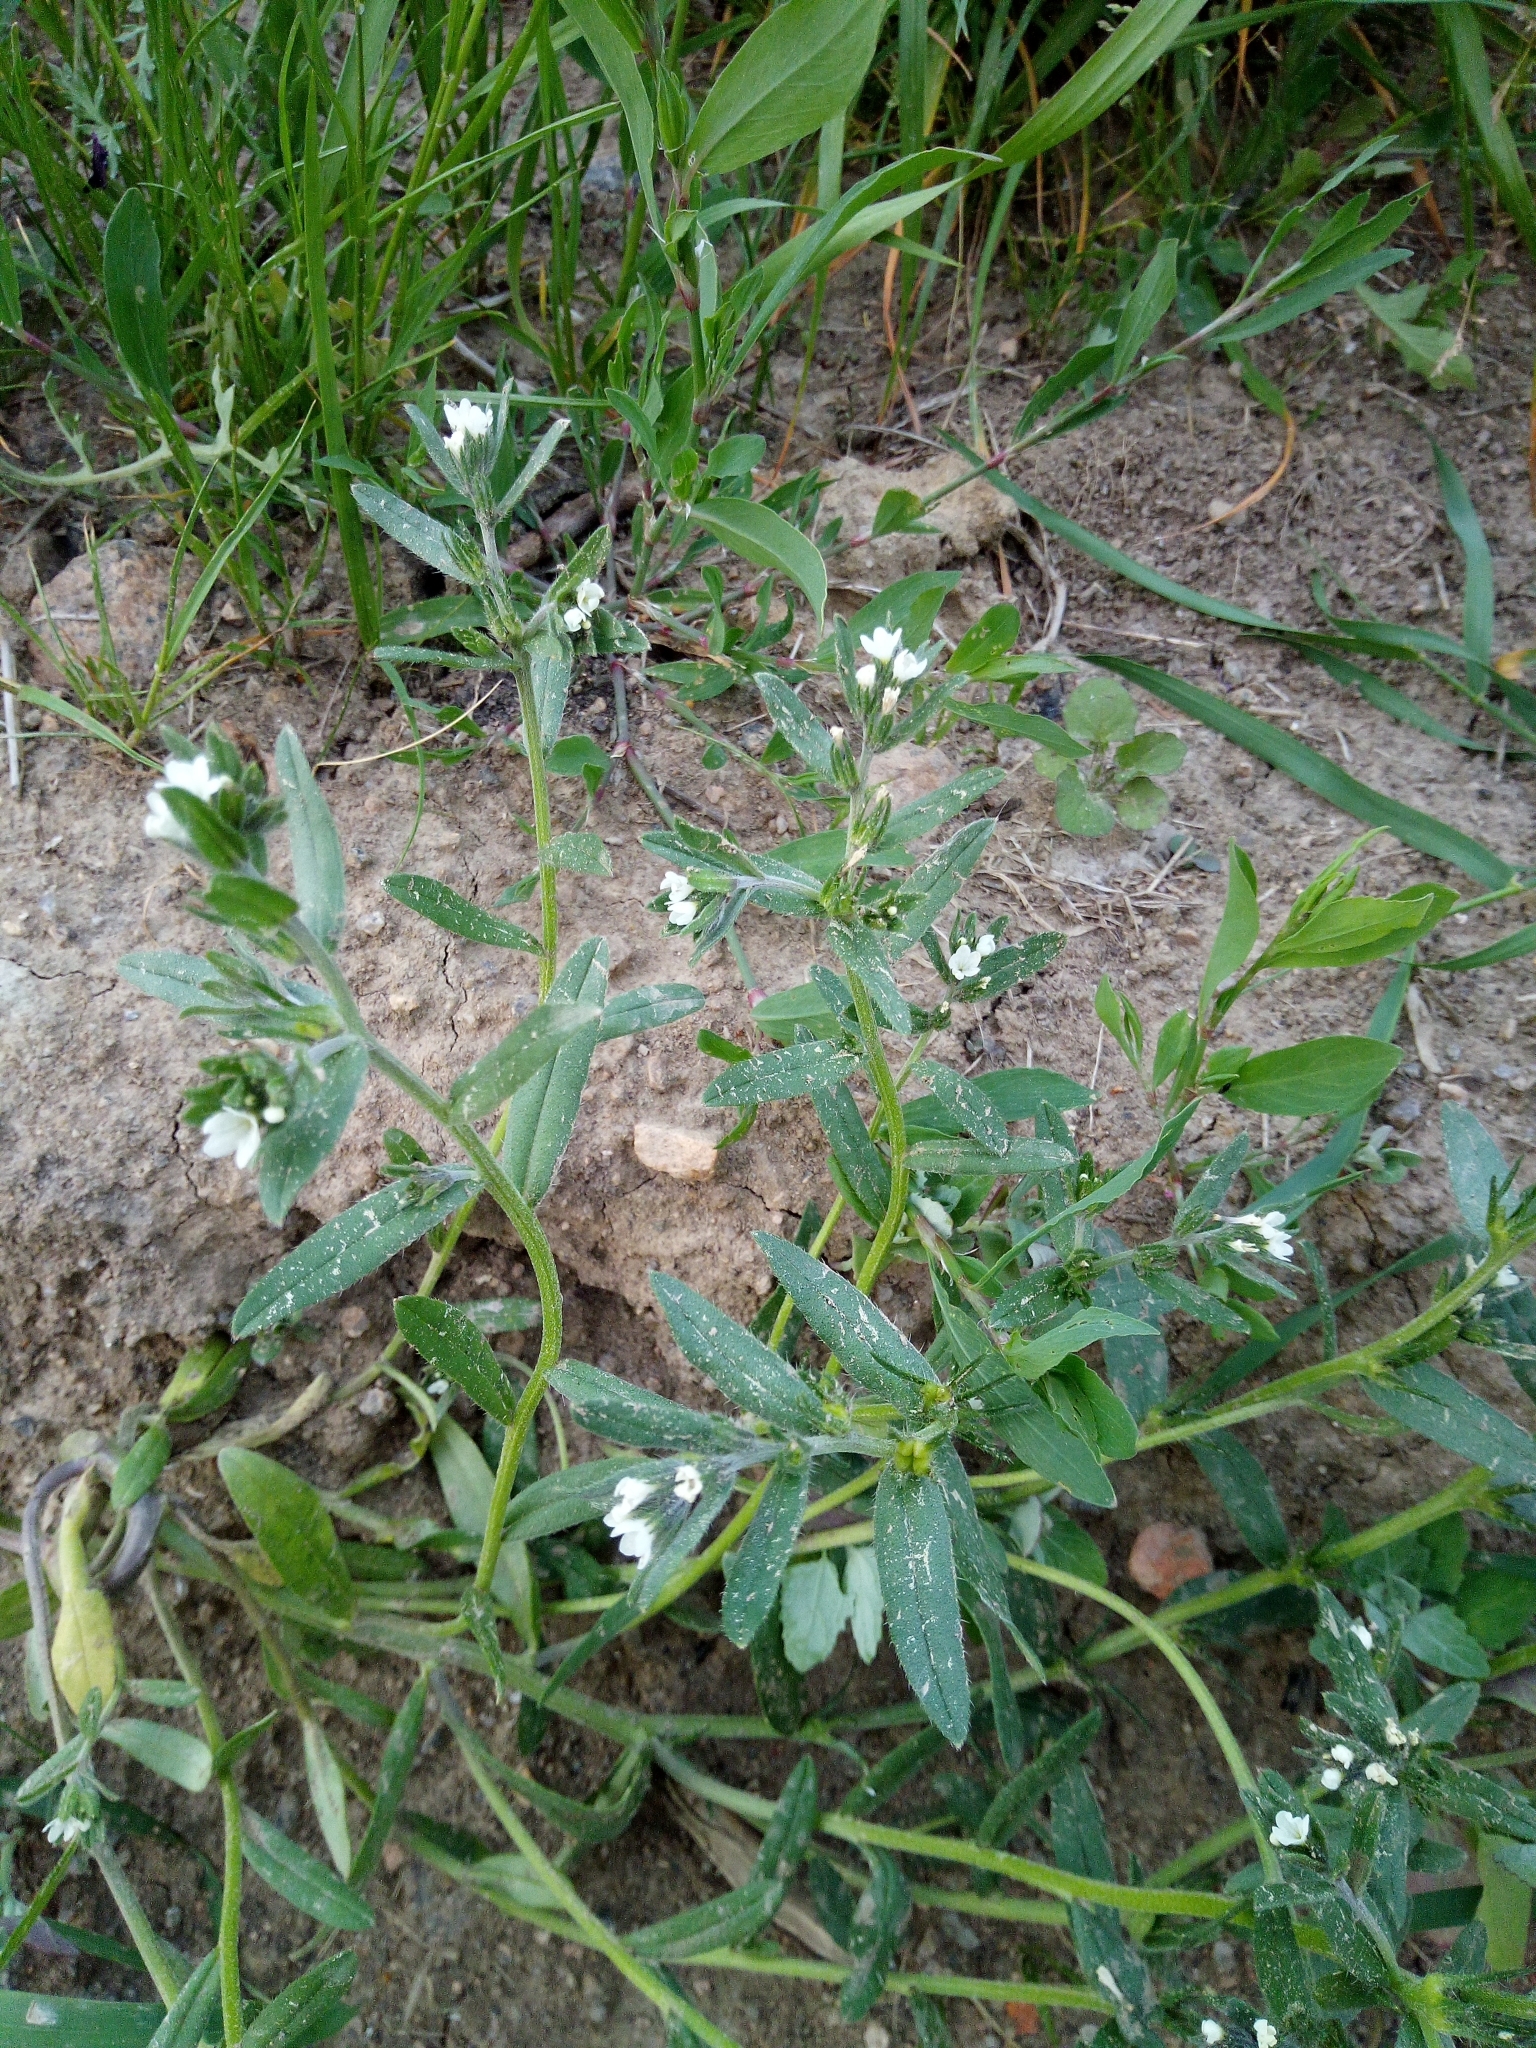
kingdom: Plantae
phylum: Tracheophyta
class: Magnoliopsida
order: Boraginales
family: Boraginaceae
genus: Buglossoides
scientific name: Buglossoides incrassata
